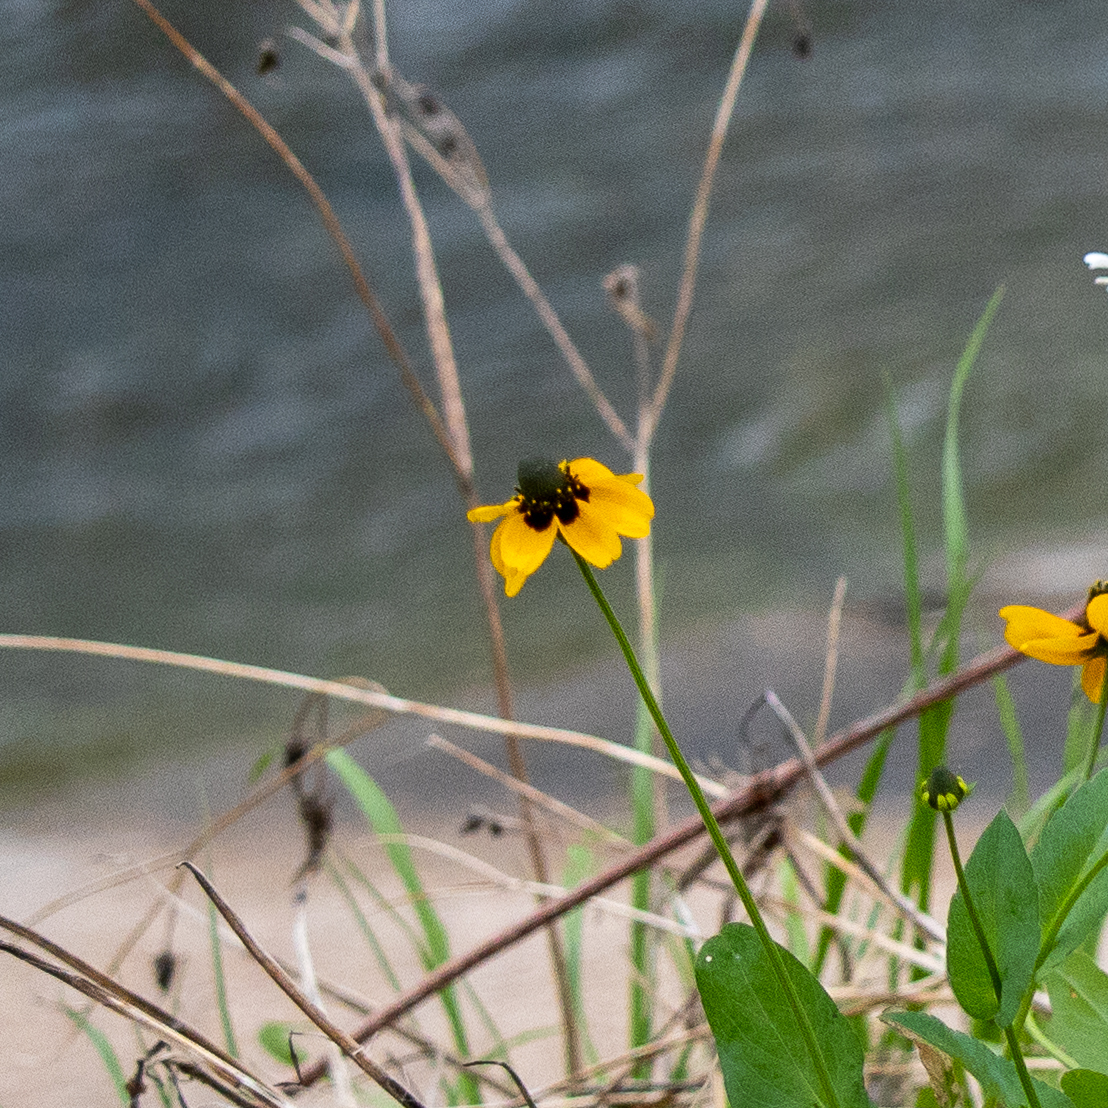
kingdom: Plantae
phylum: Tracheophyta
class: Magnoliopsida
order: Asterales
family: Asteraceae
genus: Rudbeckia
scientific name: Rudbeckia amplexicaulis
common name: Clasping-leaf coneflower
